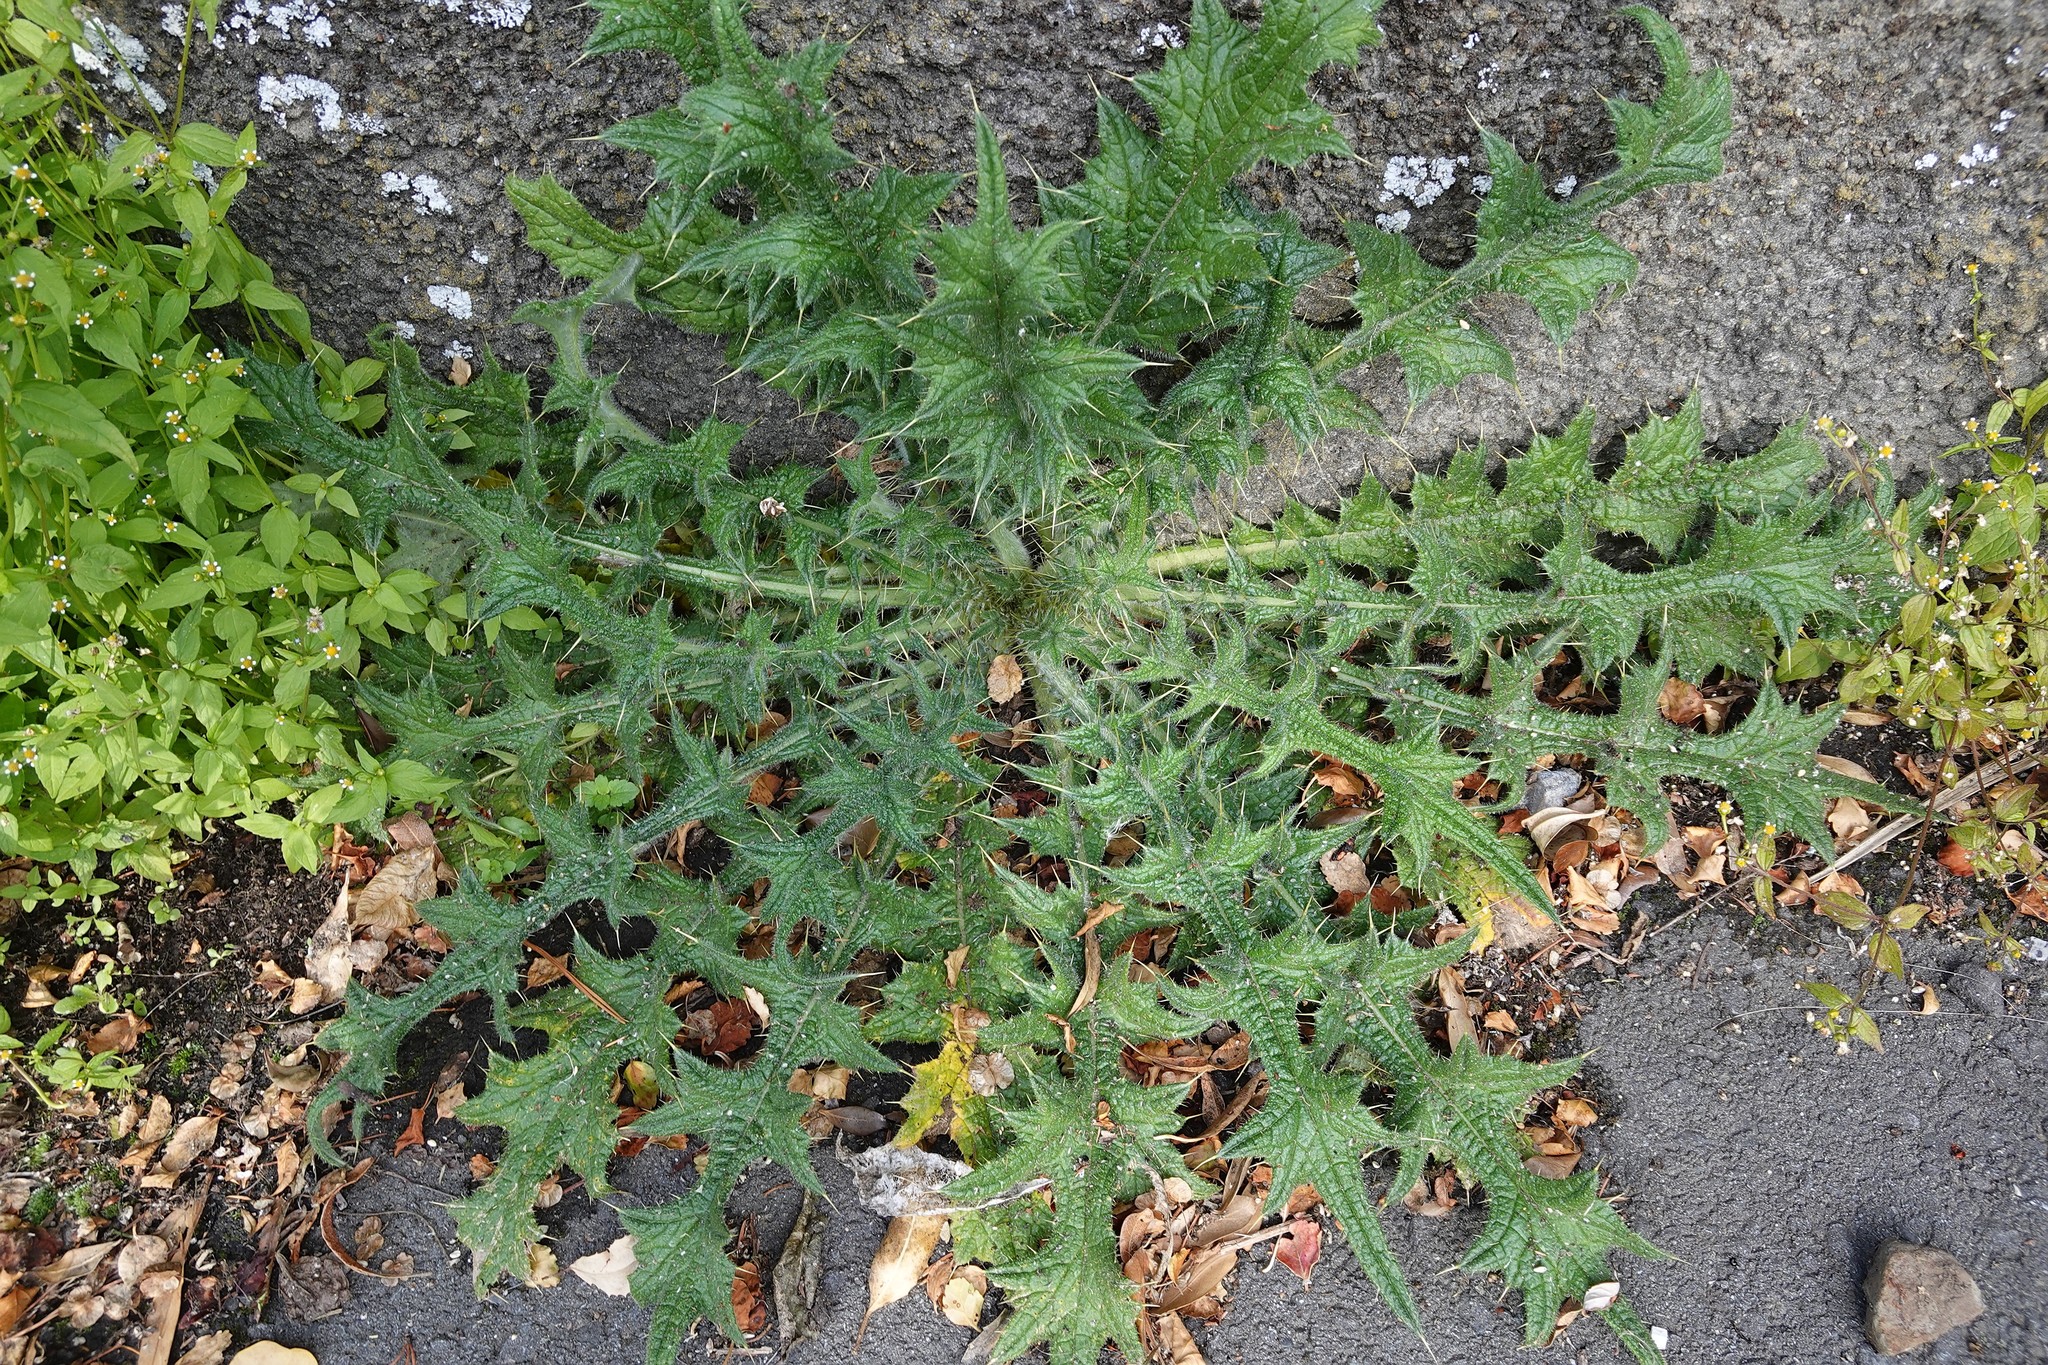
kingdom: Plantae
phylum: Tracheophyta
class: Magnoliopsida
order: Asterales
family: Asteraceae
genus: Cirsium
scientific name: Cirsium vulgare
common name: Bull thistle
